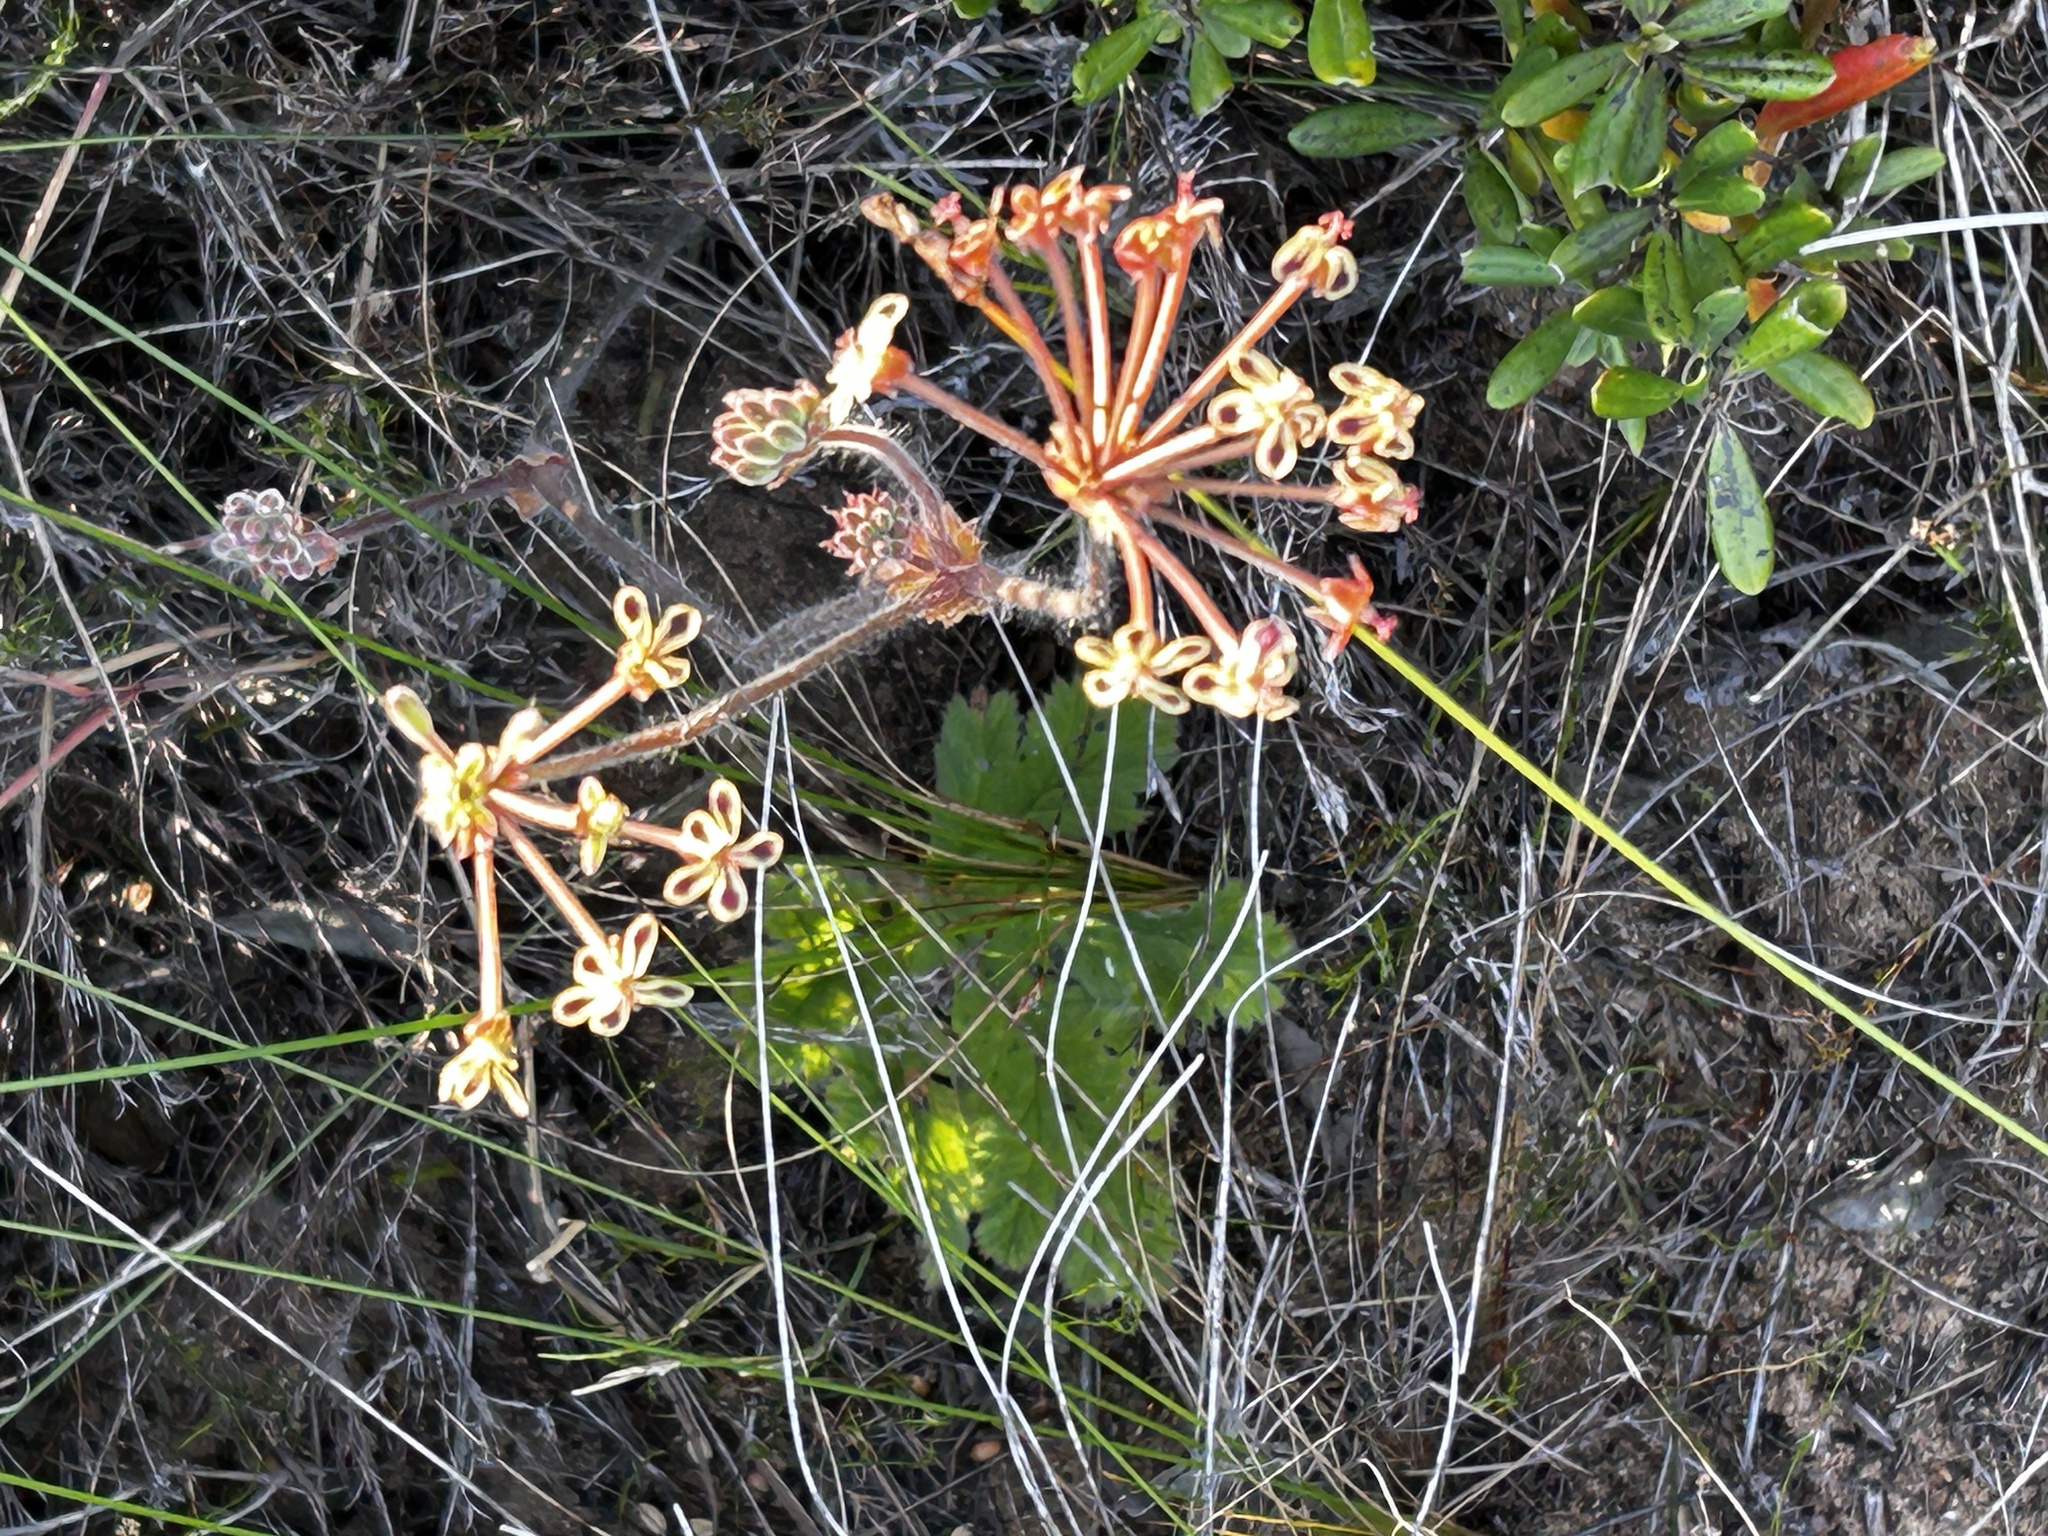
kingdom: Plantae
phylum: Tracheophyta
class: Magnoliopsida
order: Geraniales
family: Geraniaceae
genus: Pelargonium
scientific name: Pelargonium lobatum
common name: Vine-leaf pelargonium
